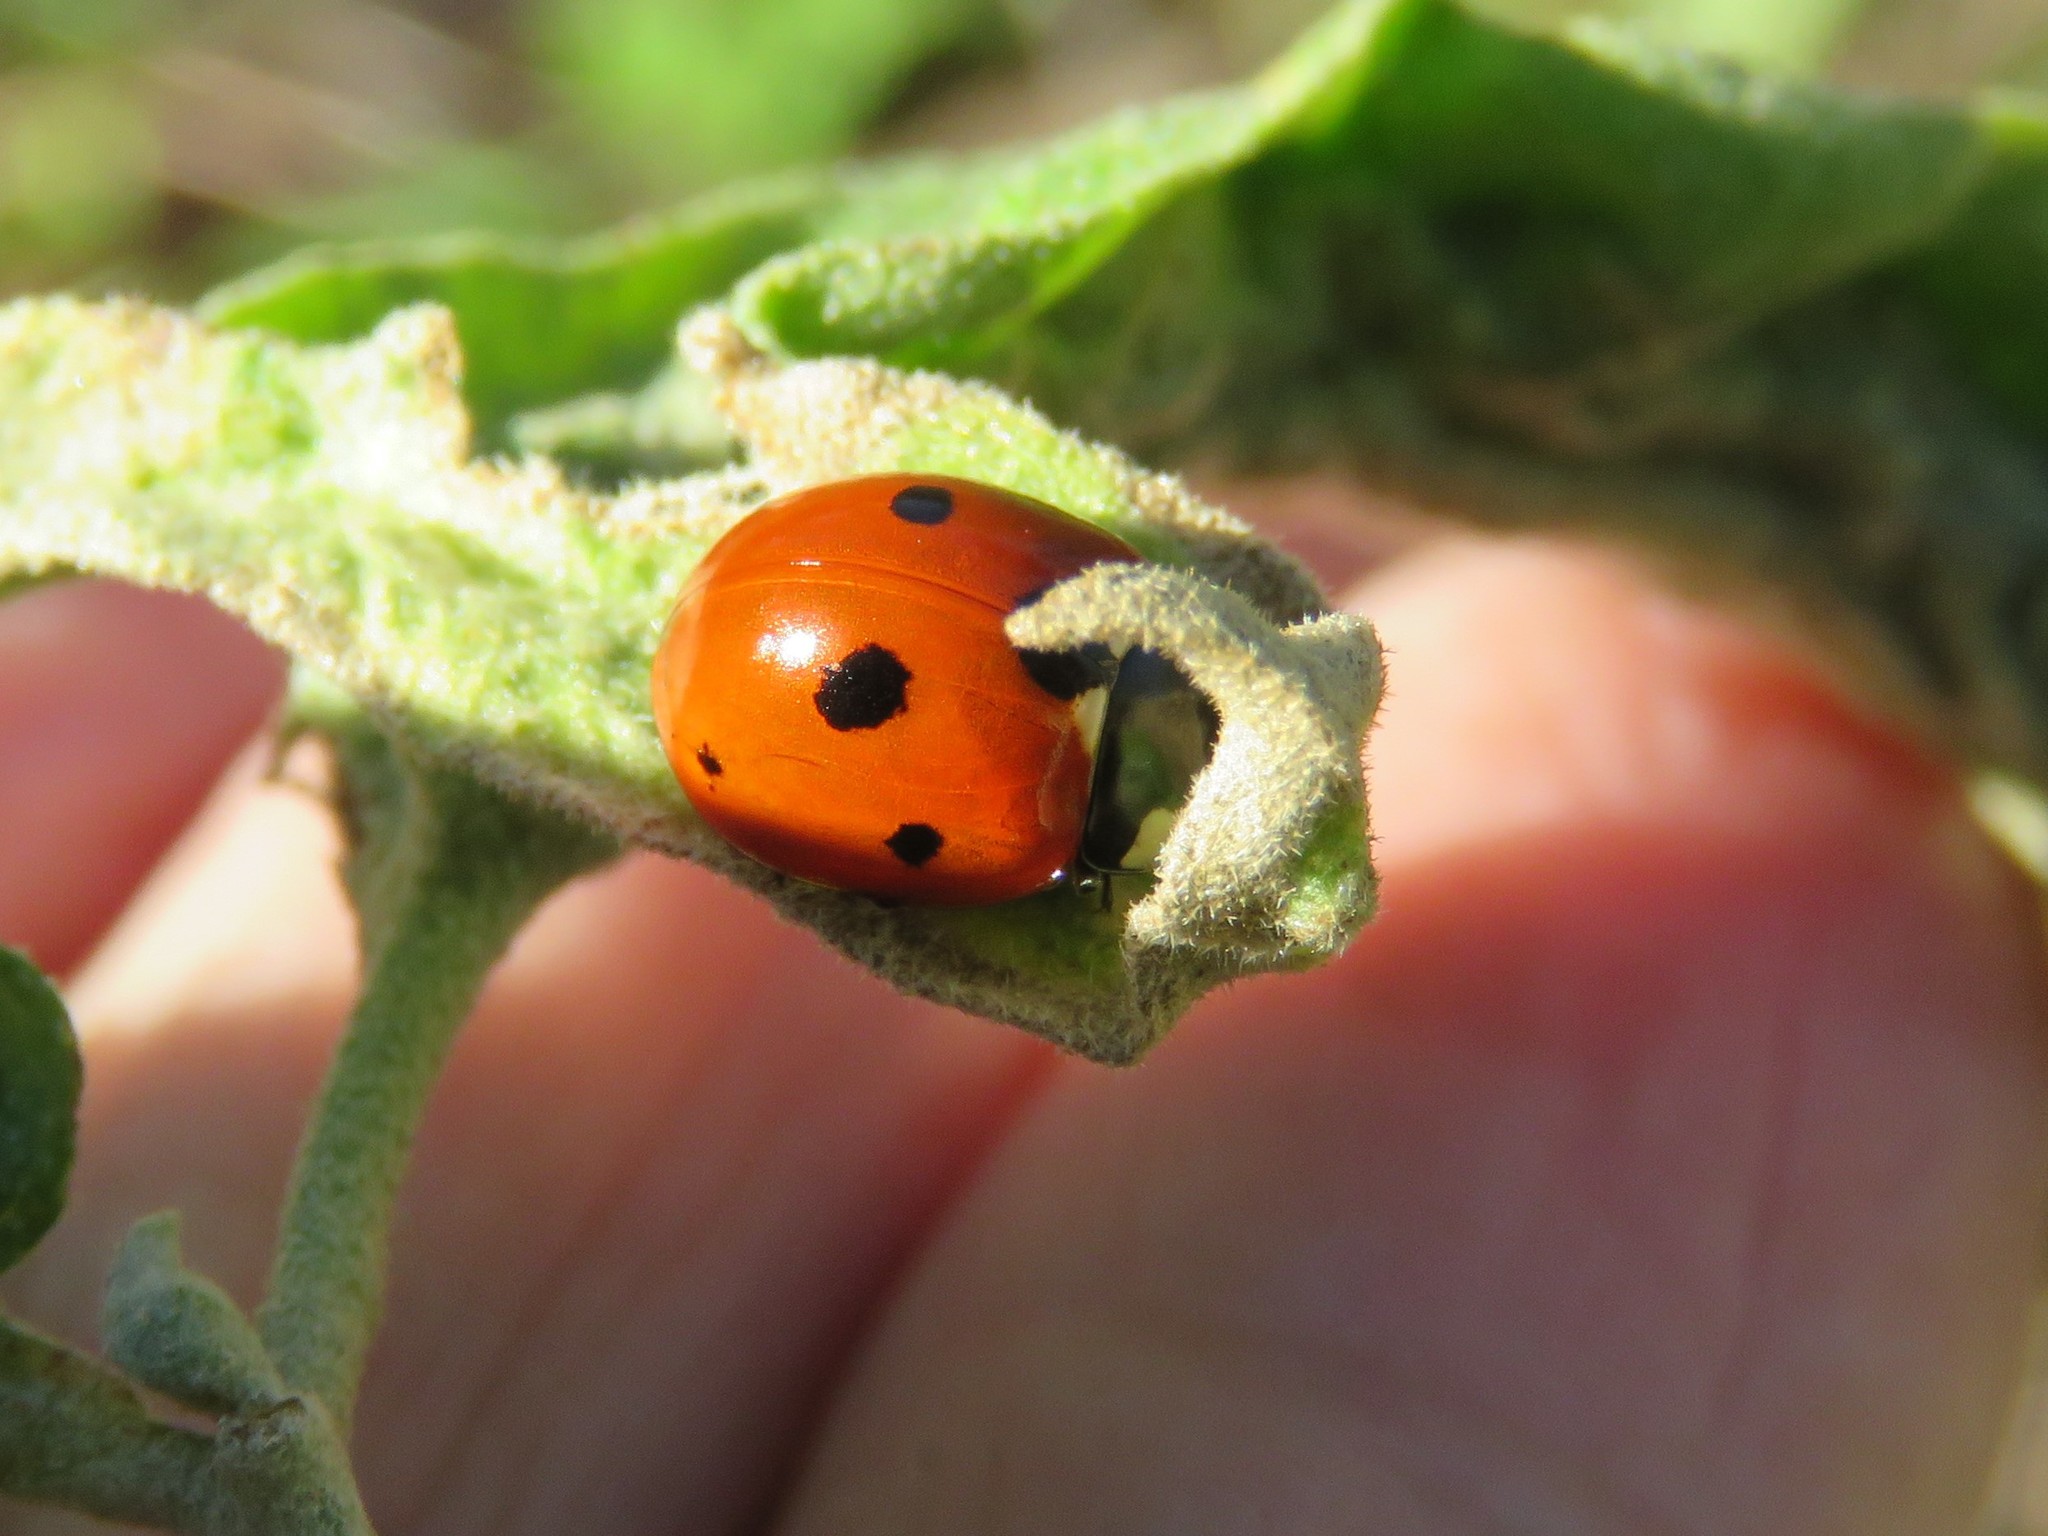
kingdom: Animalia
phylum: Arthropoda
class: Insecta
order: Coleoptera
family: Coccinellidae
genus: Coccinella
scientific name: Coccinella septempunctata
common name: Sevenspotted lady beetle
